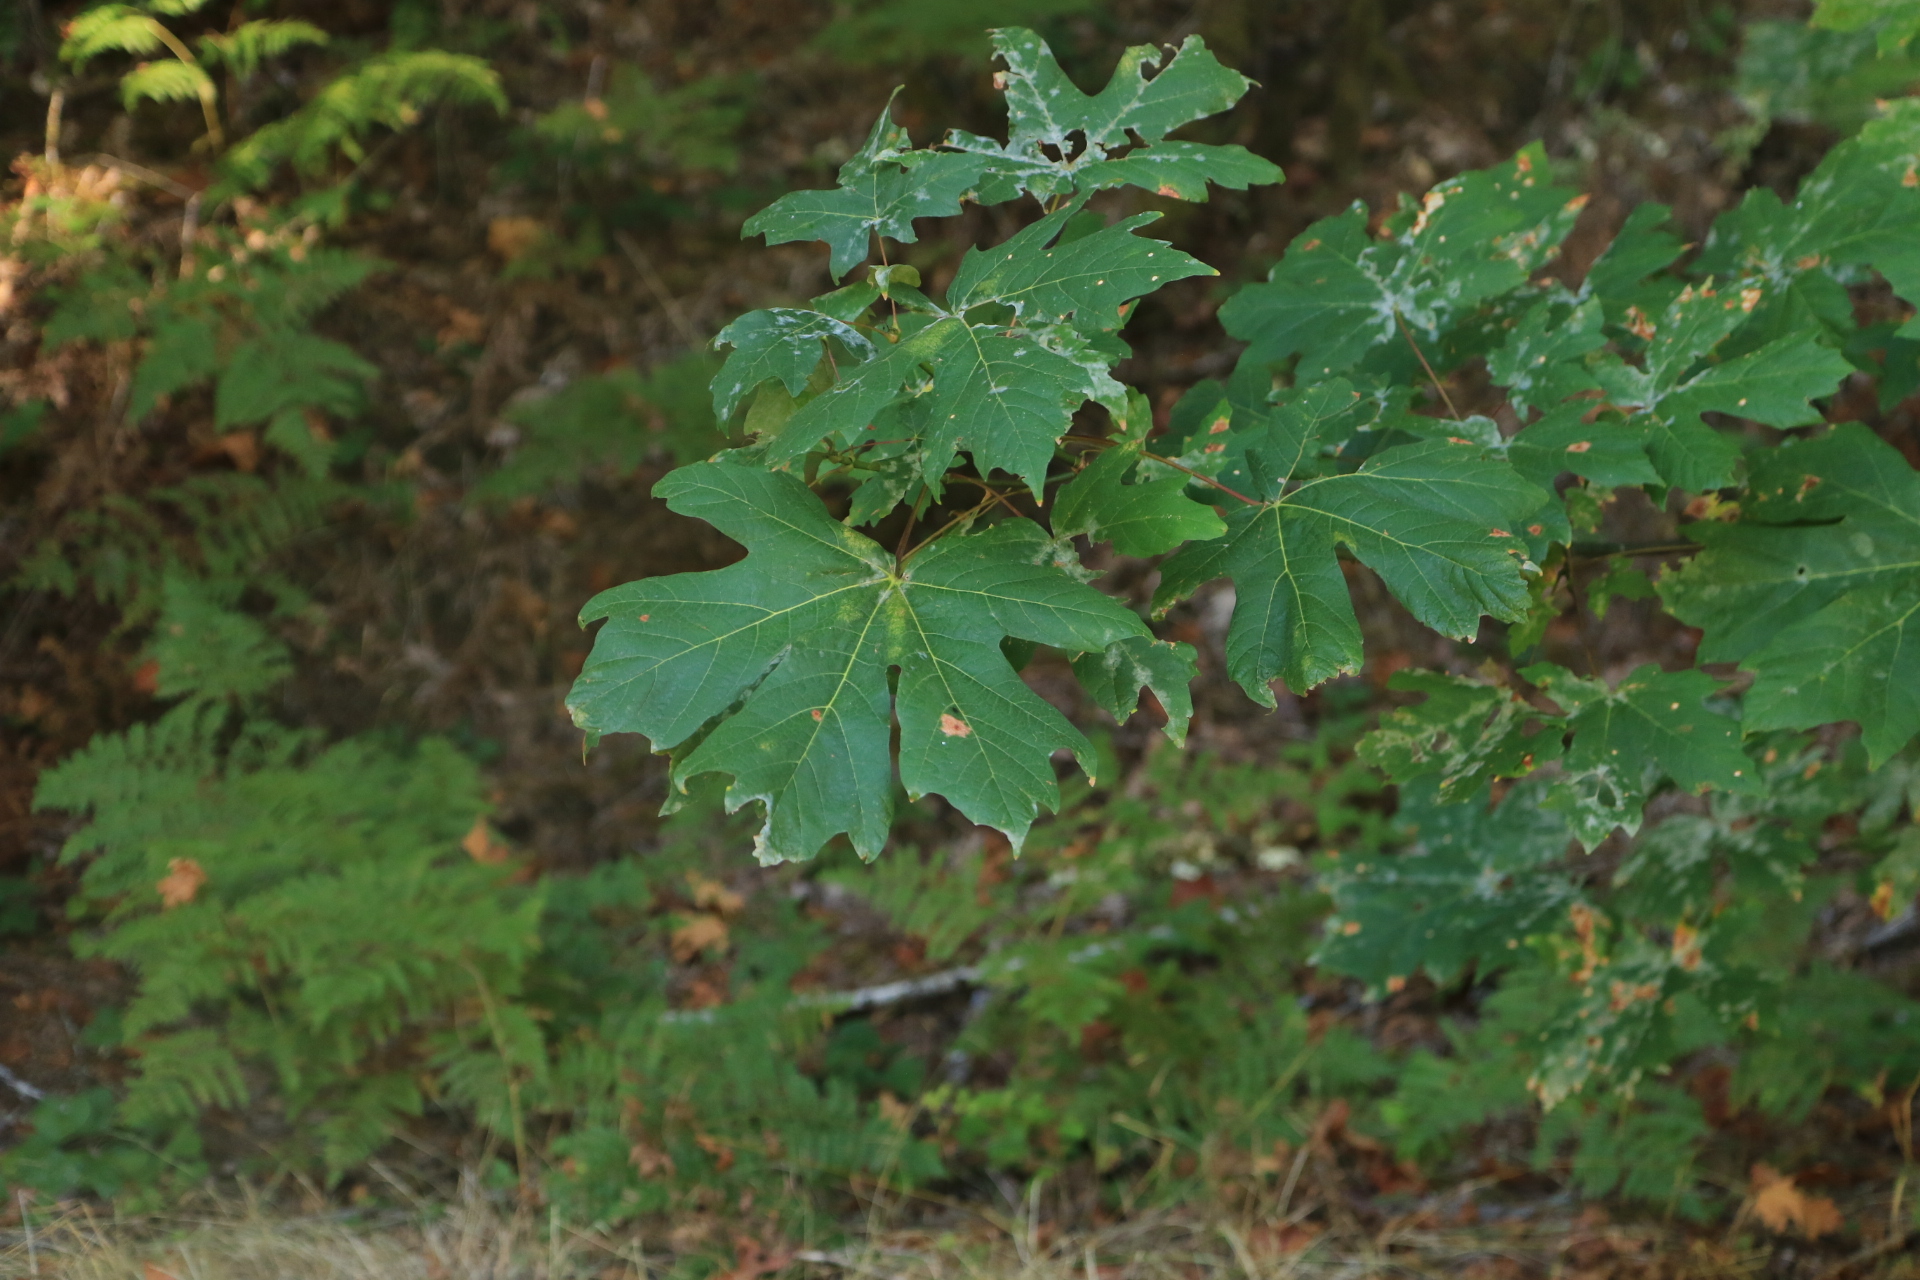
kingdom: Plantae
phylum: Tracheophyta
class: Magnoliopsida
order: Sapindales
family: Sapindaceae
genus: Acer
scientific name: Acer macrophyllum
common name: Oregon maple
